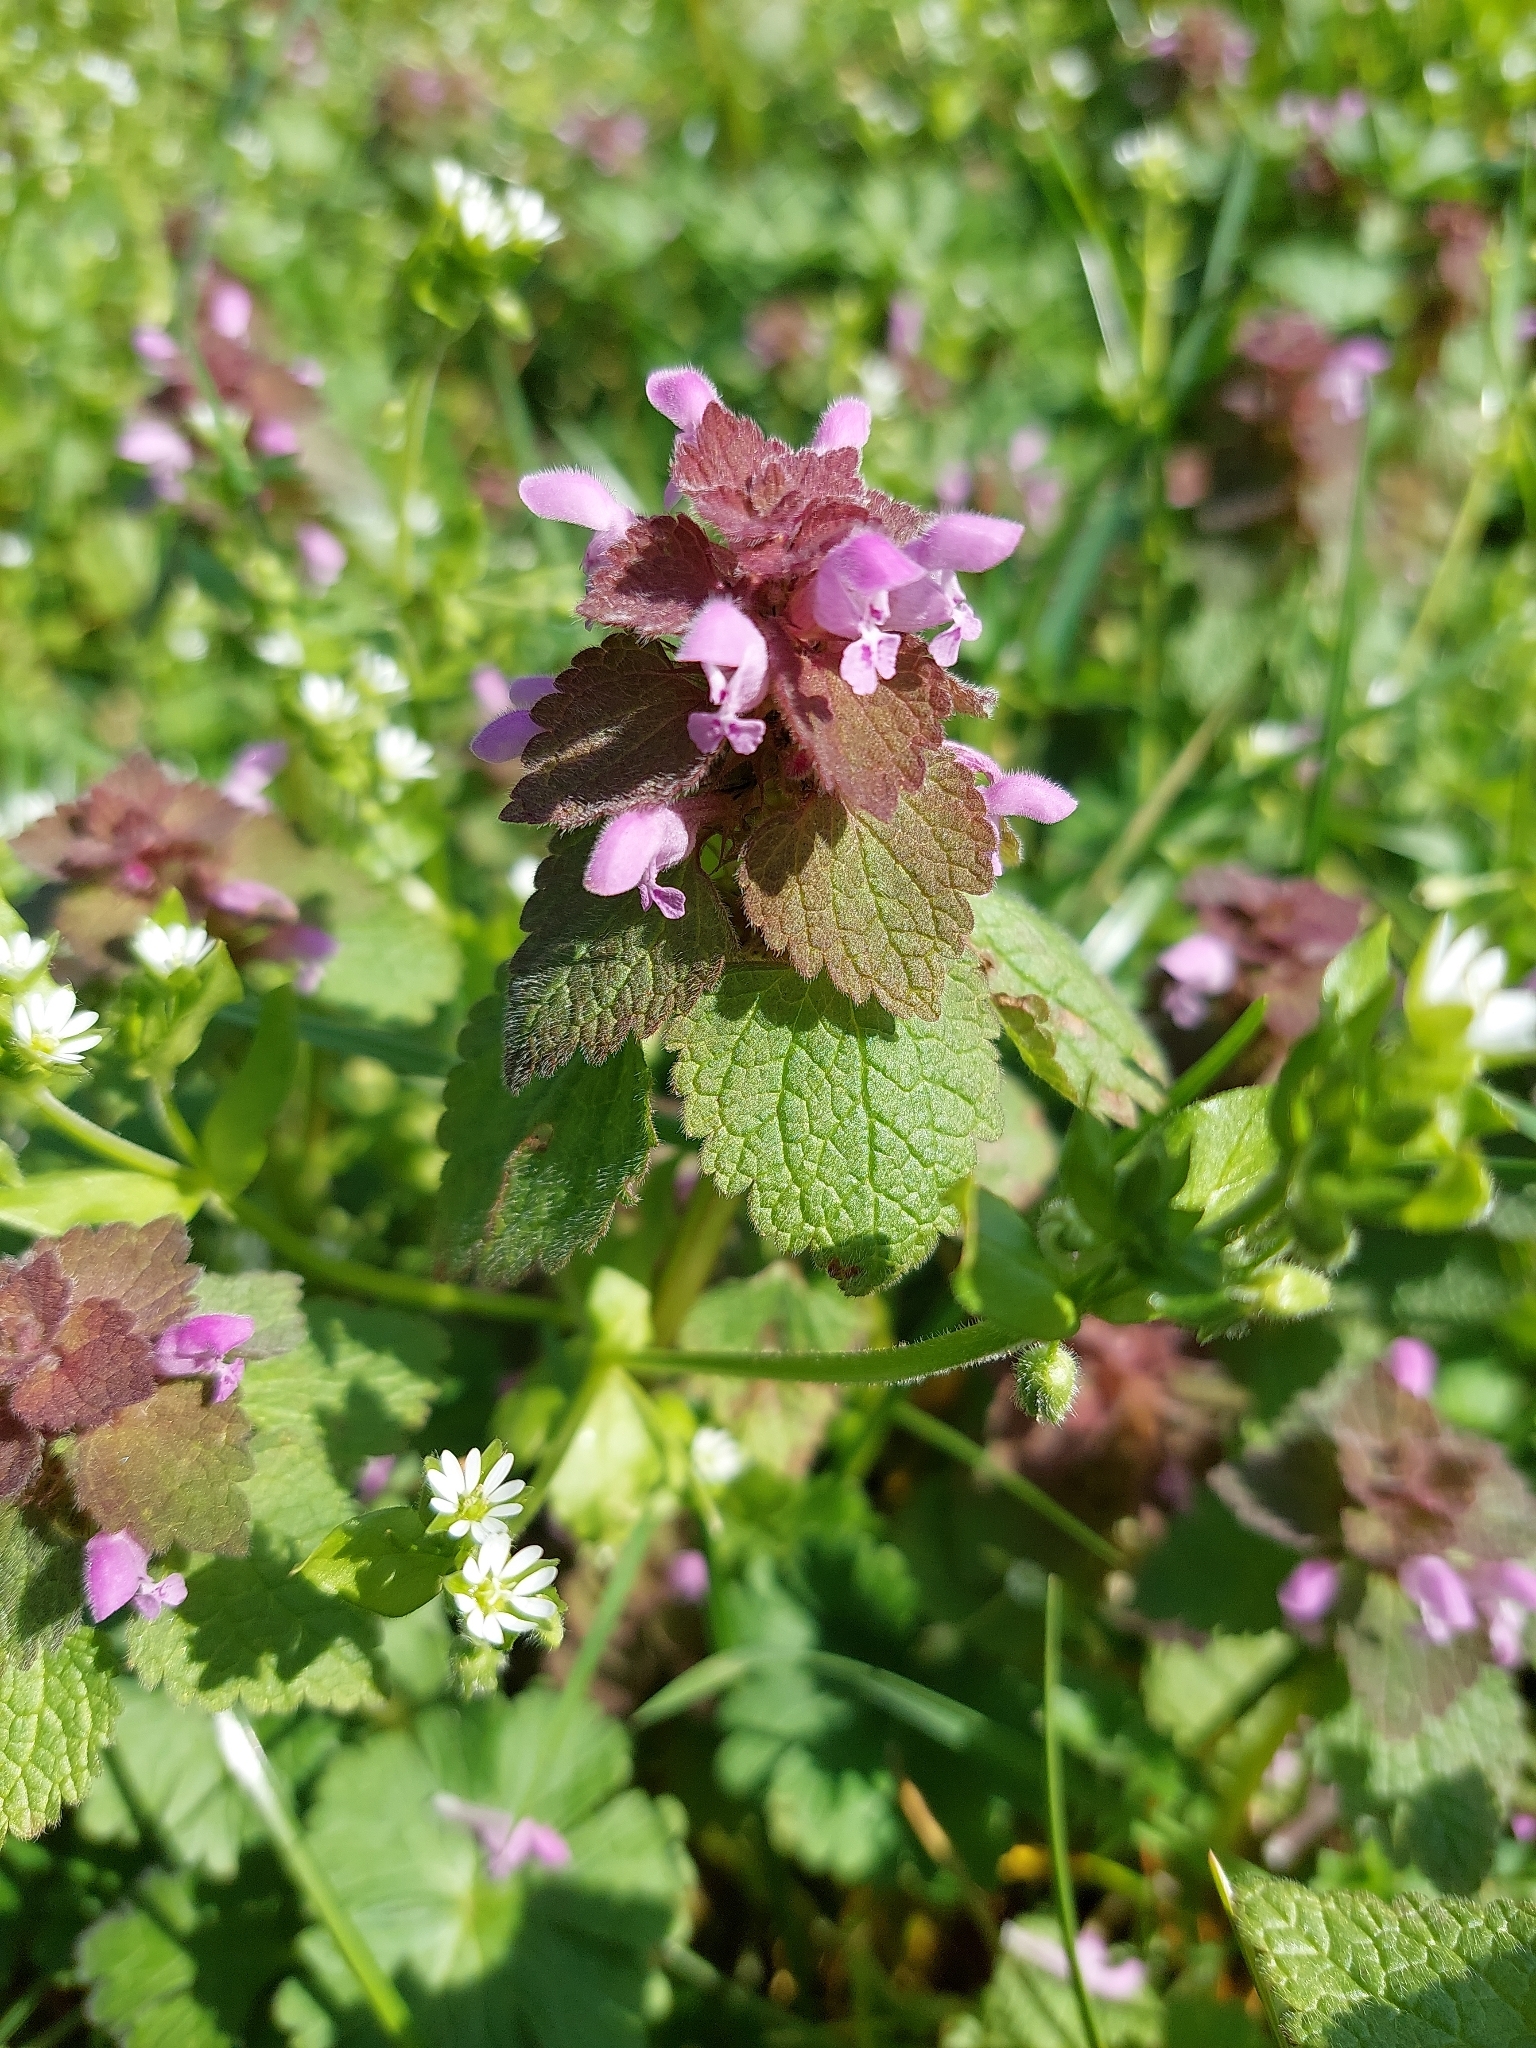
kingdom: Plantae
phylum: Tracheophyta
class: Magnoliopsida
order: Lamiales
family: Lamiaceae
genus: Lamium
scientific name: Lamium purpureum
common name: Red dead-nettle
